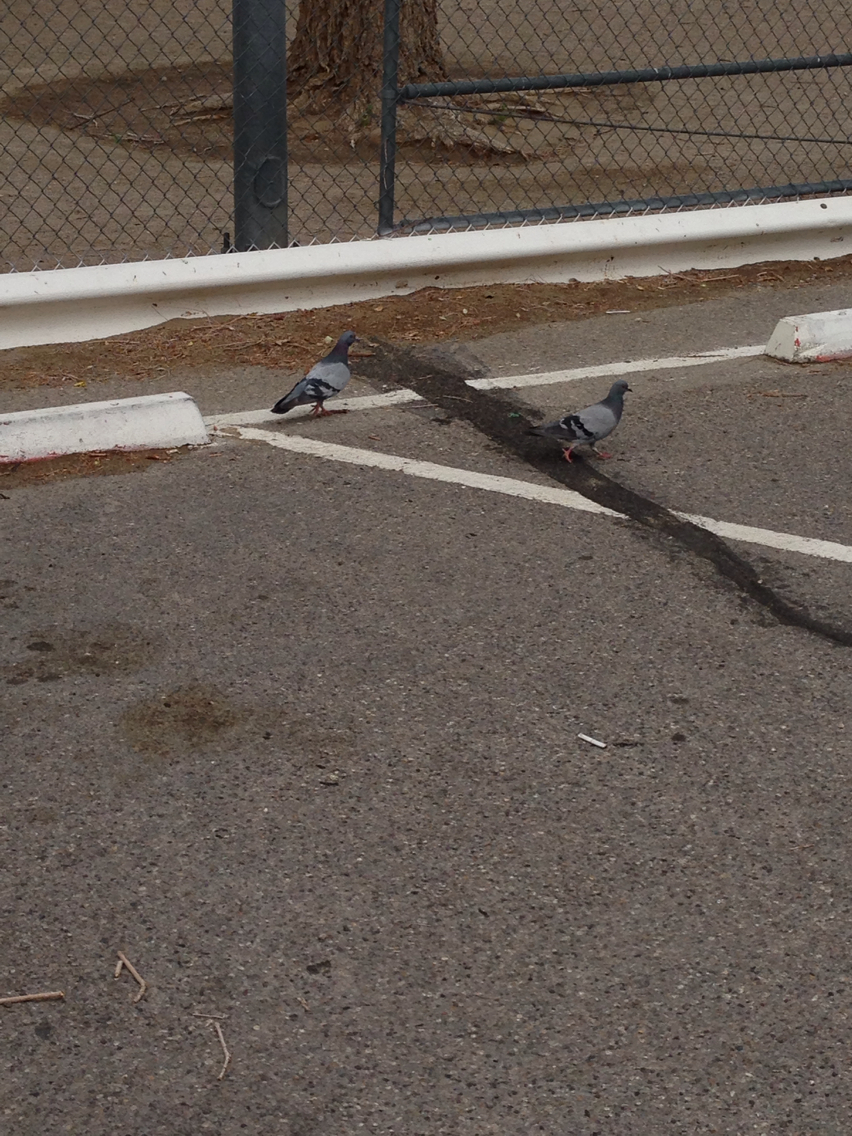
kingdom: Animalia
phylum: Chordata
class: Aves
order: Columbiformes
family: Columbidae
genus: Columba
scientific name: Columba livia
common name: Rock pigeon
